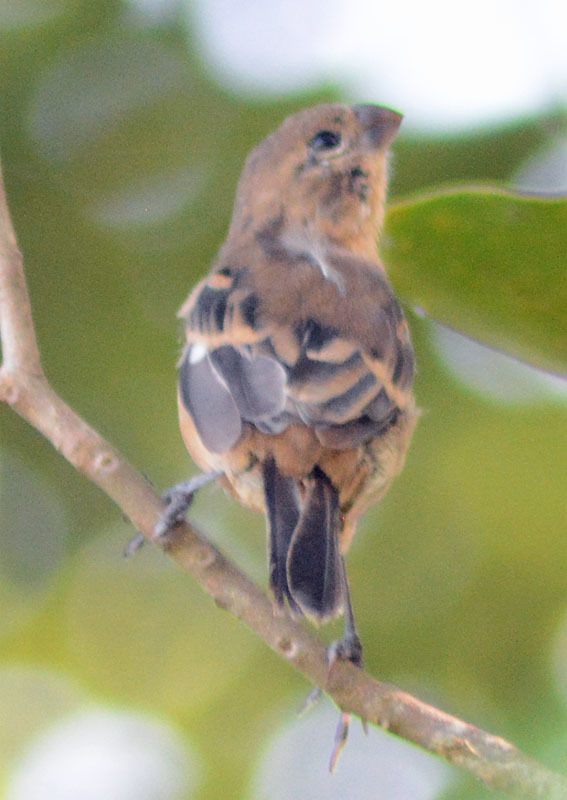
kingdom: Animalia
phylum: Chordata
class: Aves
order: Passeriformes
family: Thraupidae
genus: Sporophila
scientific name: Sporophila morelleti
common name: Morelet's seedeater
